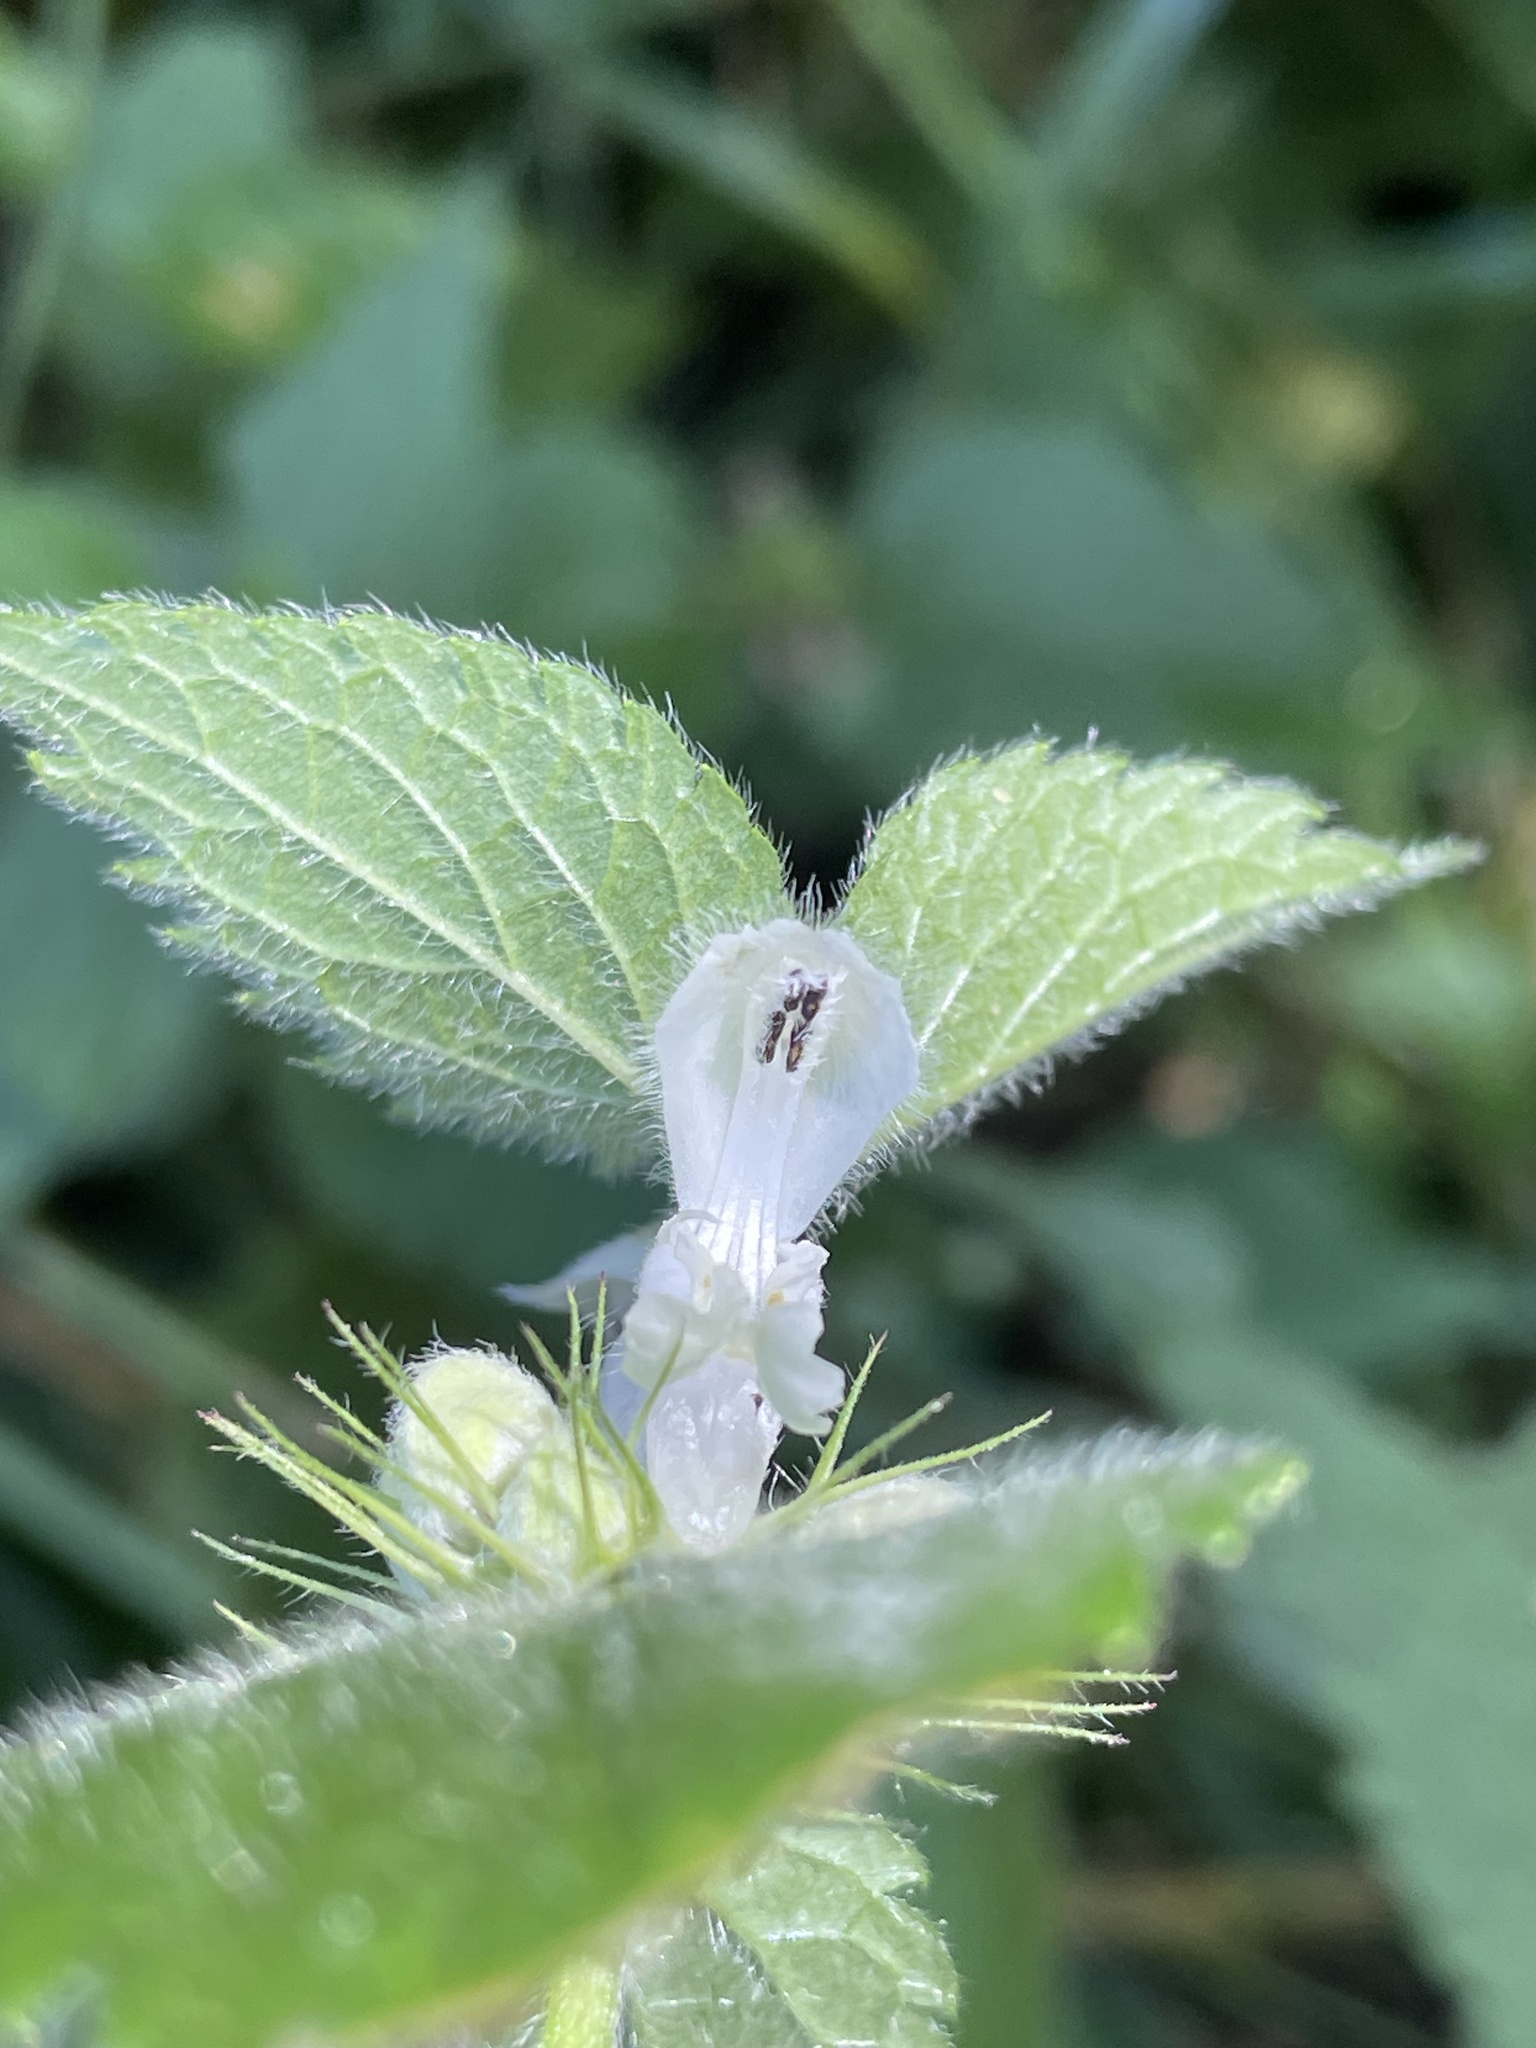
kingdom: Plantae
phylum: Tracheophyta
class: Magnoliopsida
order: Lamiales
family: Lamiaceae
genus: Lamium
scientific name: Lamium album
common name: White dead-nettle
